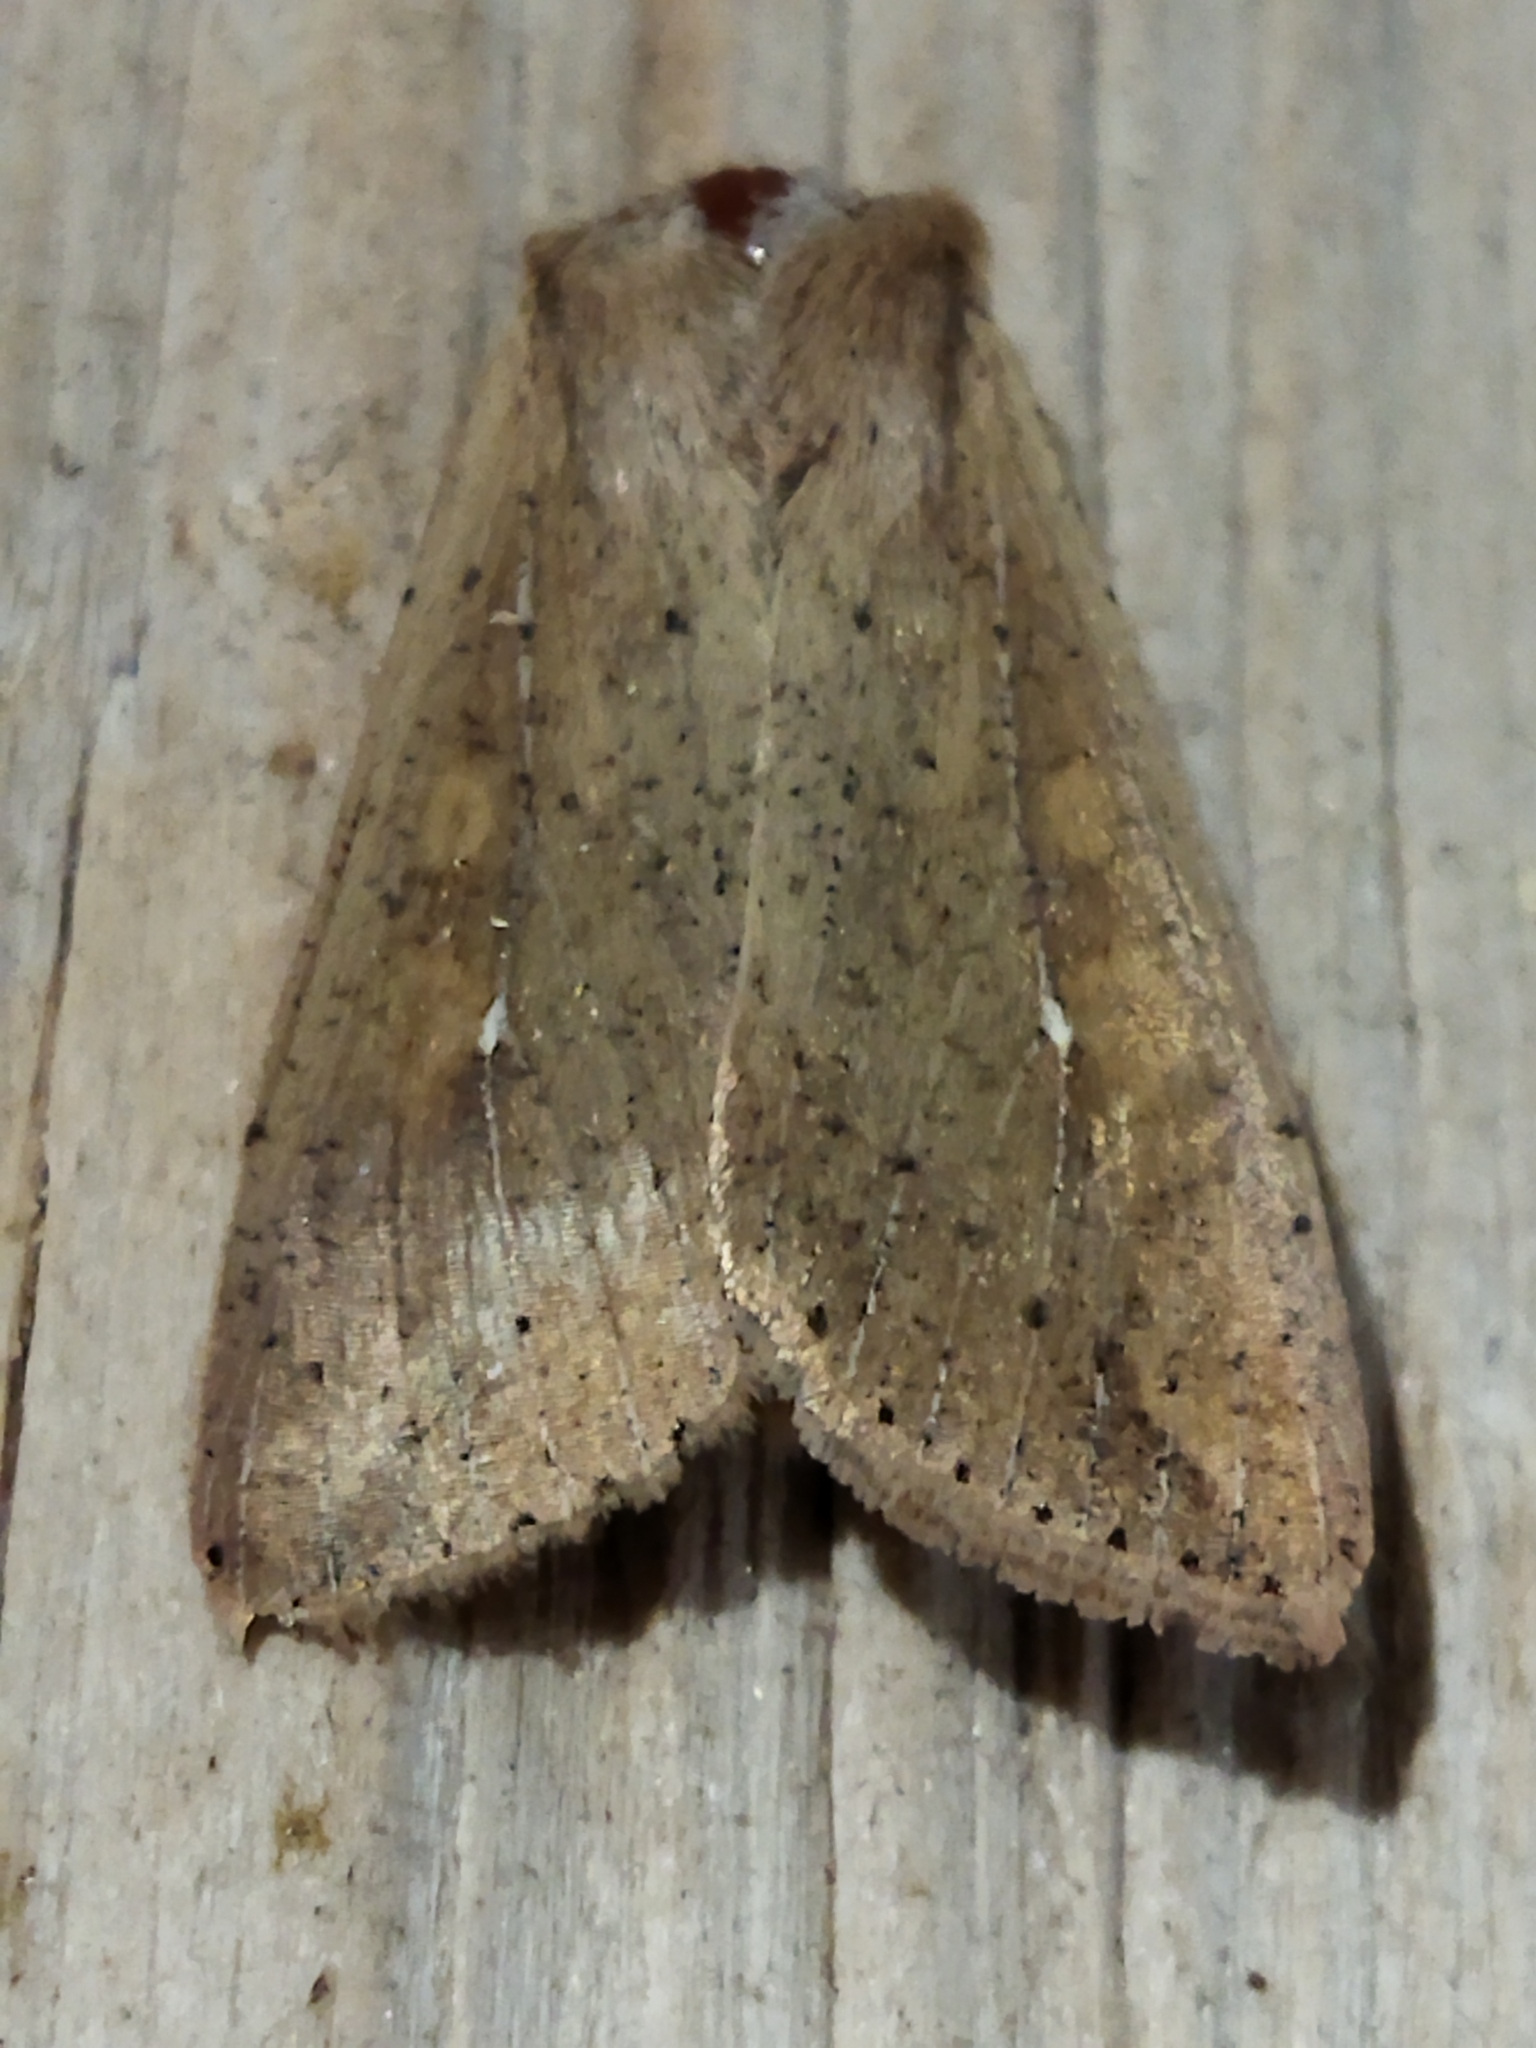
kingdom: Animalia
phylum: Arthropoda
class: Insecta
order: Lepidoptera
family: Noctuidae
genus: Mythimna
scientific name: Mythimna unipuncta
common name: White-speck
